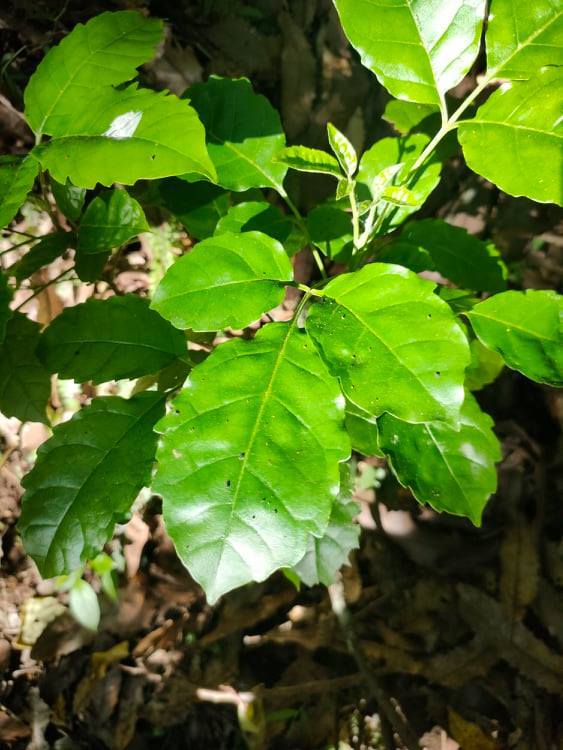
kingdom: Plantae
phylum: Tracheophyta
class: Magnoliopsida
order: Lamiales
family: Lamiaceae
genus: Vitex
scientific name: Vitex lucens
